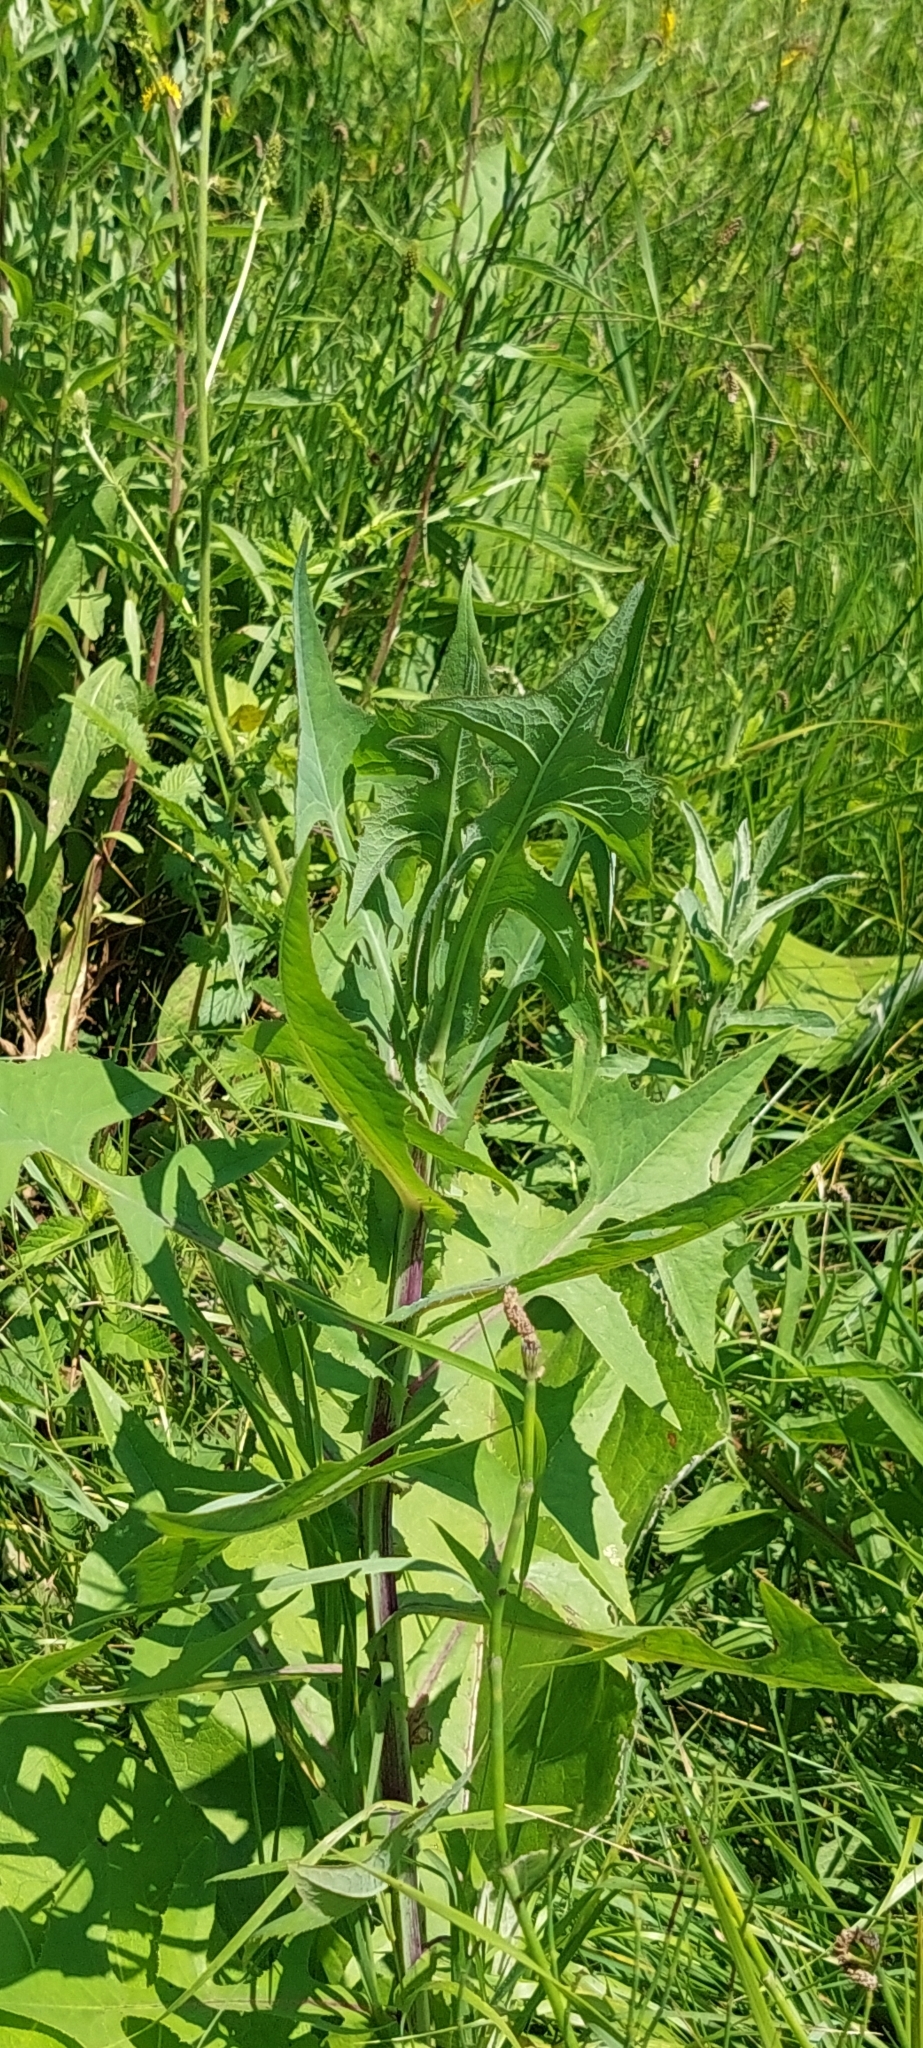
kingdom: Plantae
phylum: Tracheophyta
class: Magnoliopsida
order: Asterales
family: Asteraceae
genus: Lactuca
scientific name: Lactuca serriola
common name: Prickly lettuce
